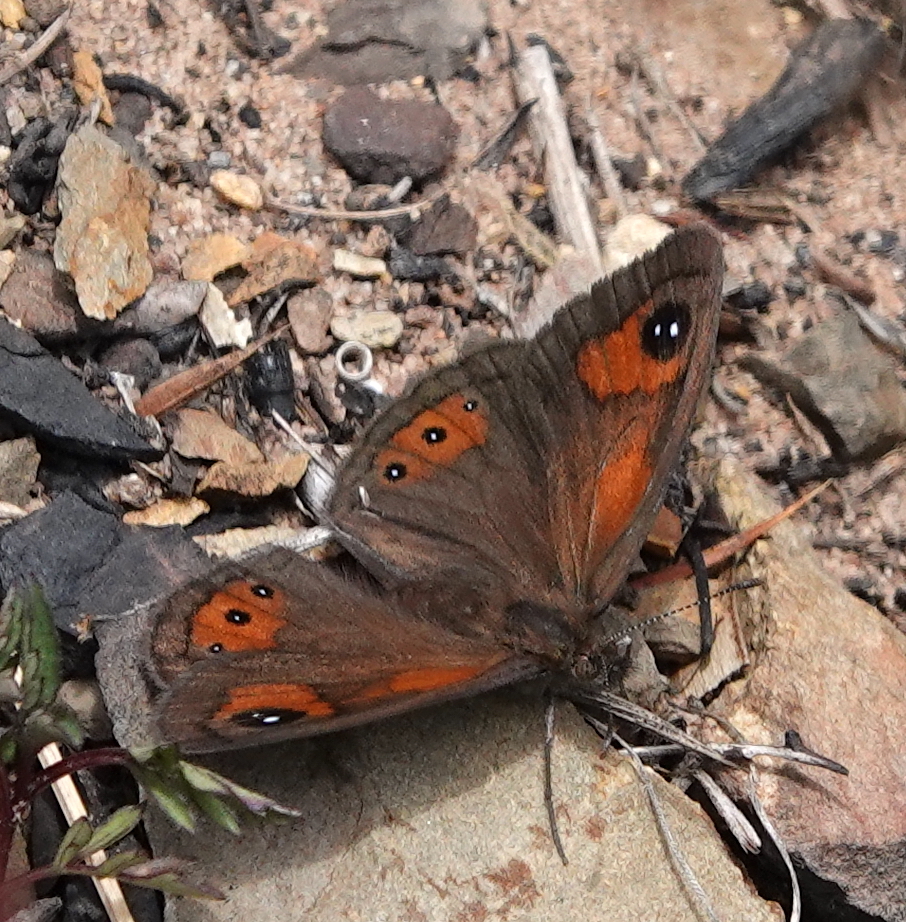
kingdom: Animalia
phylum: Arthropoda
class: Insecta
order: Lepidoptera
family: Nymphalidae
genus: Pseudonympha
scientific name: Pseudonympha magus
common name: Silver-bottom brown
